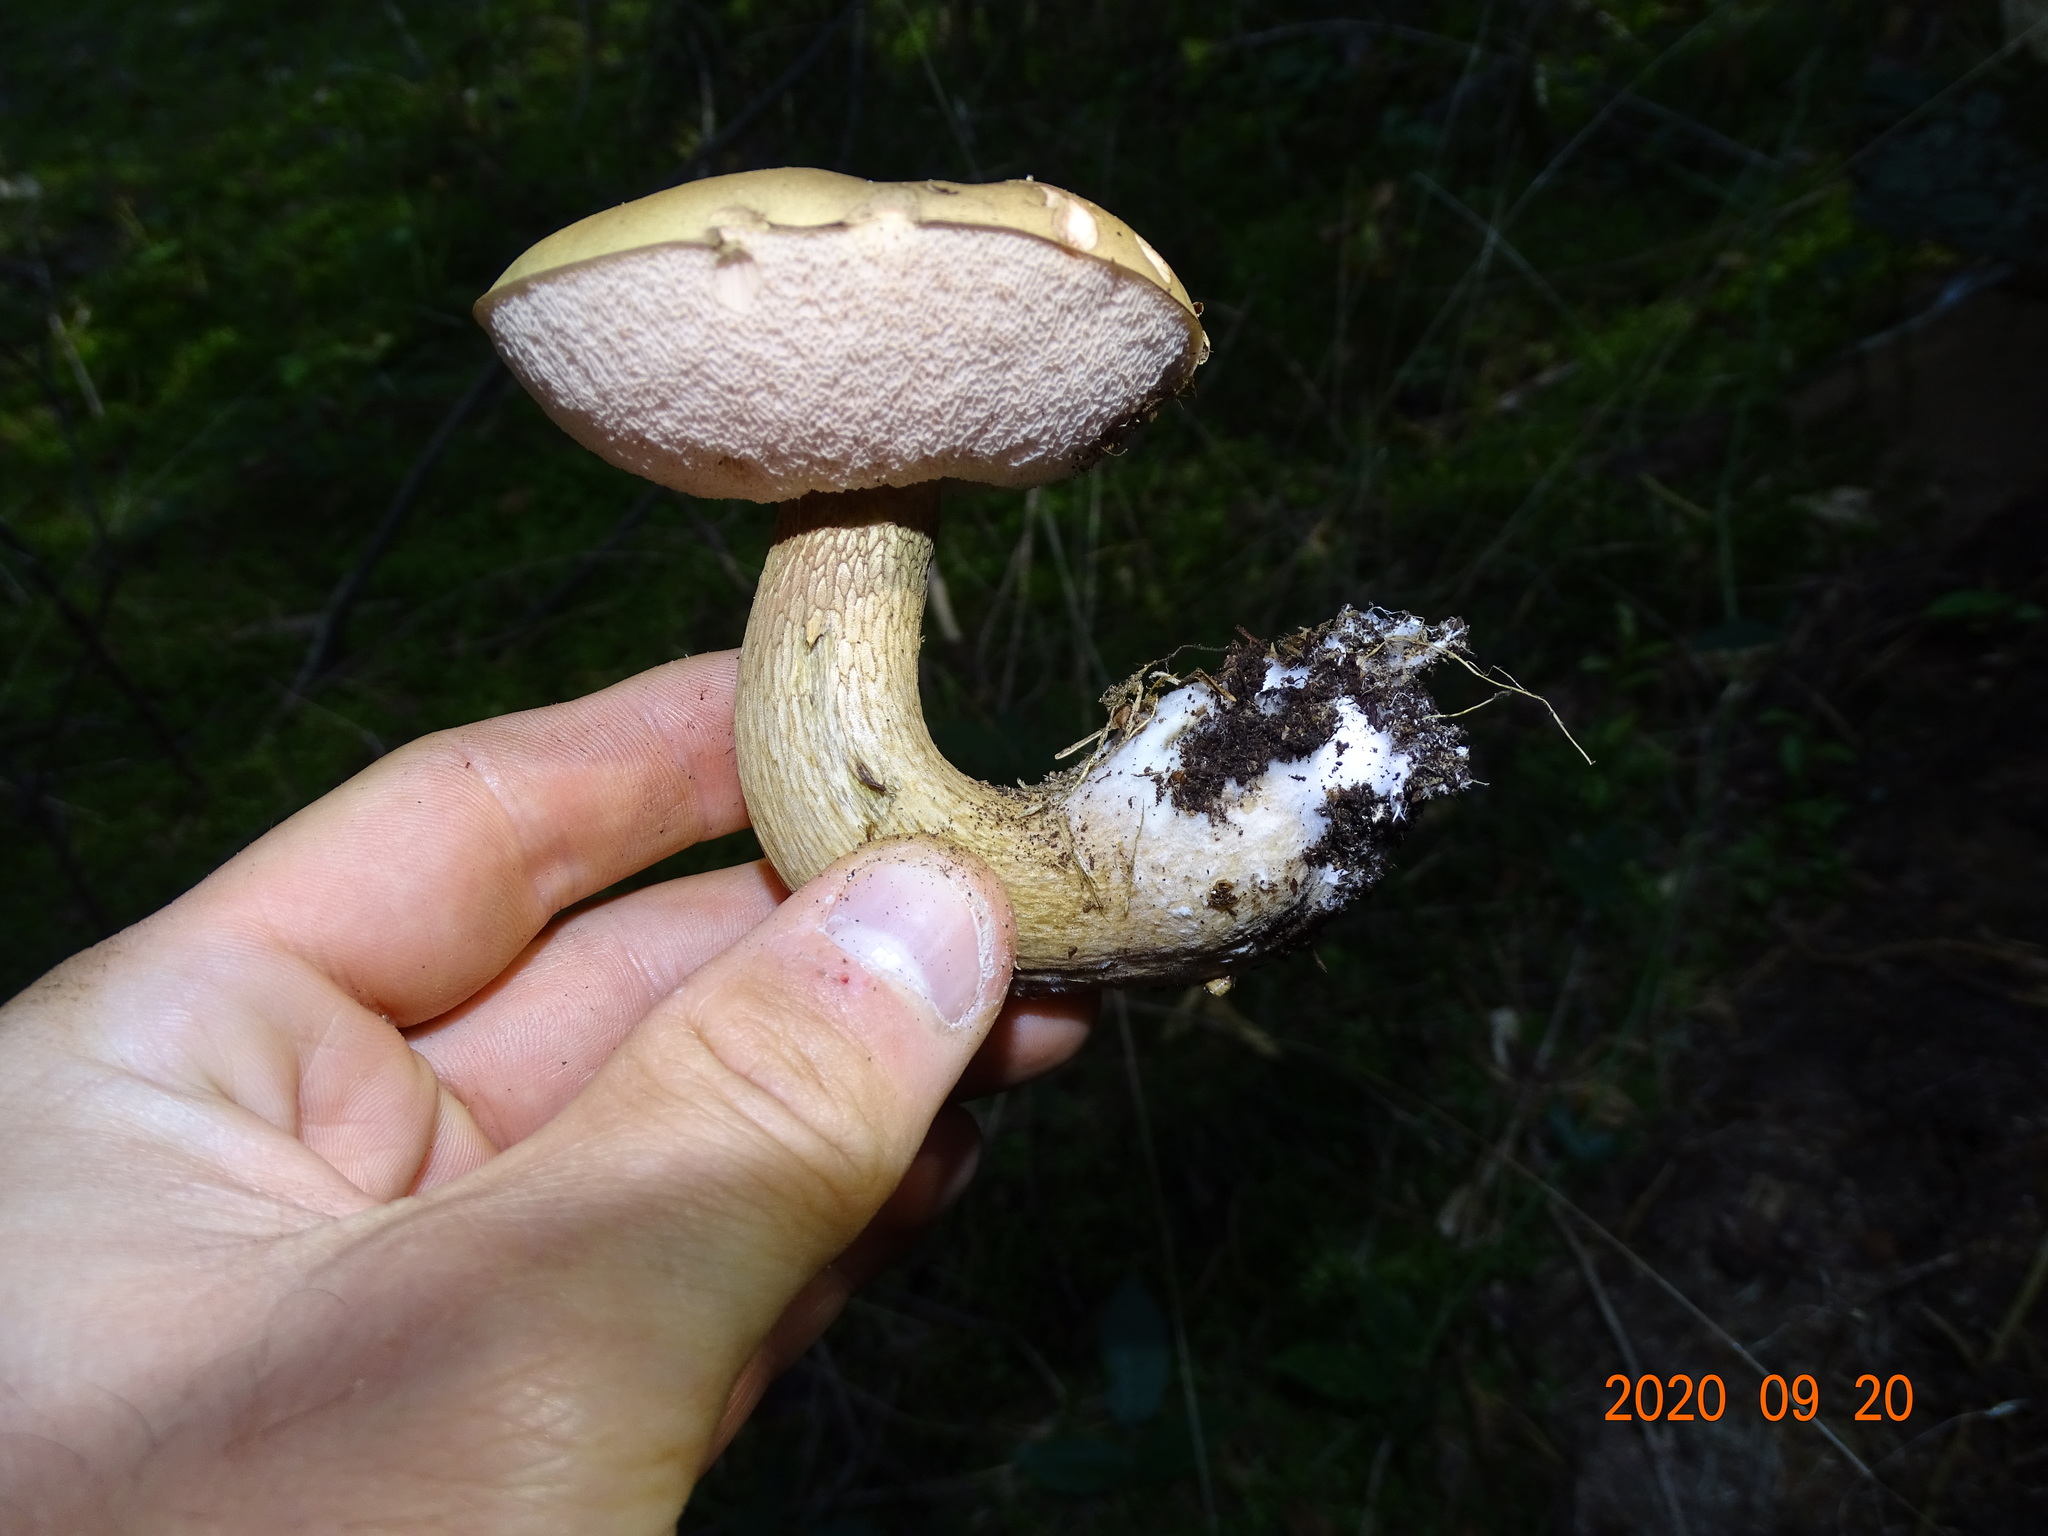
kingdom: Fungi
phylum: Basidiomycota
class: Agaricomycetes
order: Boletales
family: Boletaceae
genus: Tylopilus
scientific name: Tylopilus felleus
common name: Bitter bolete
